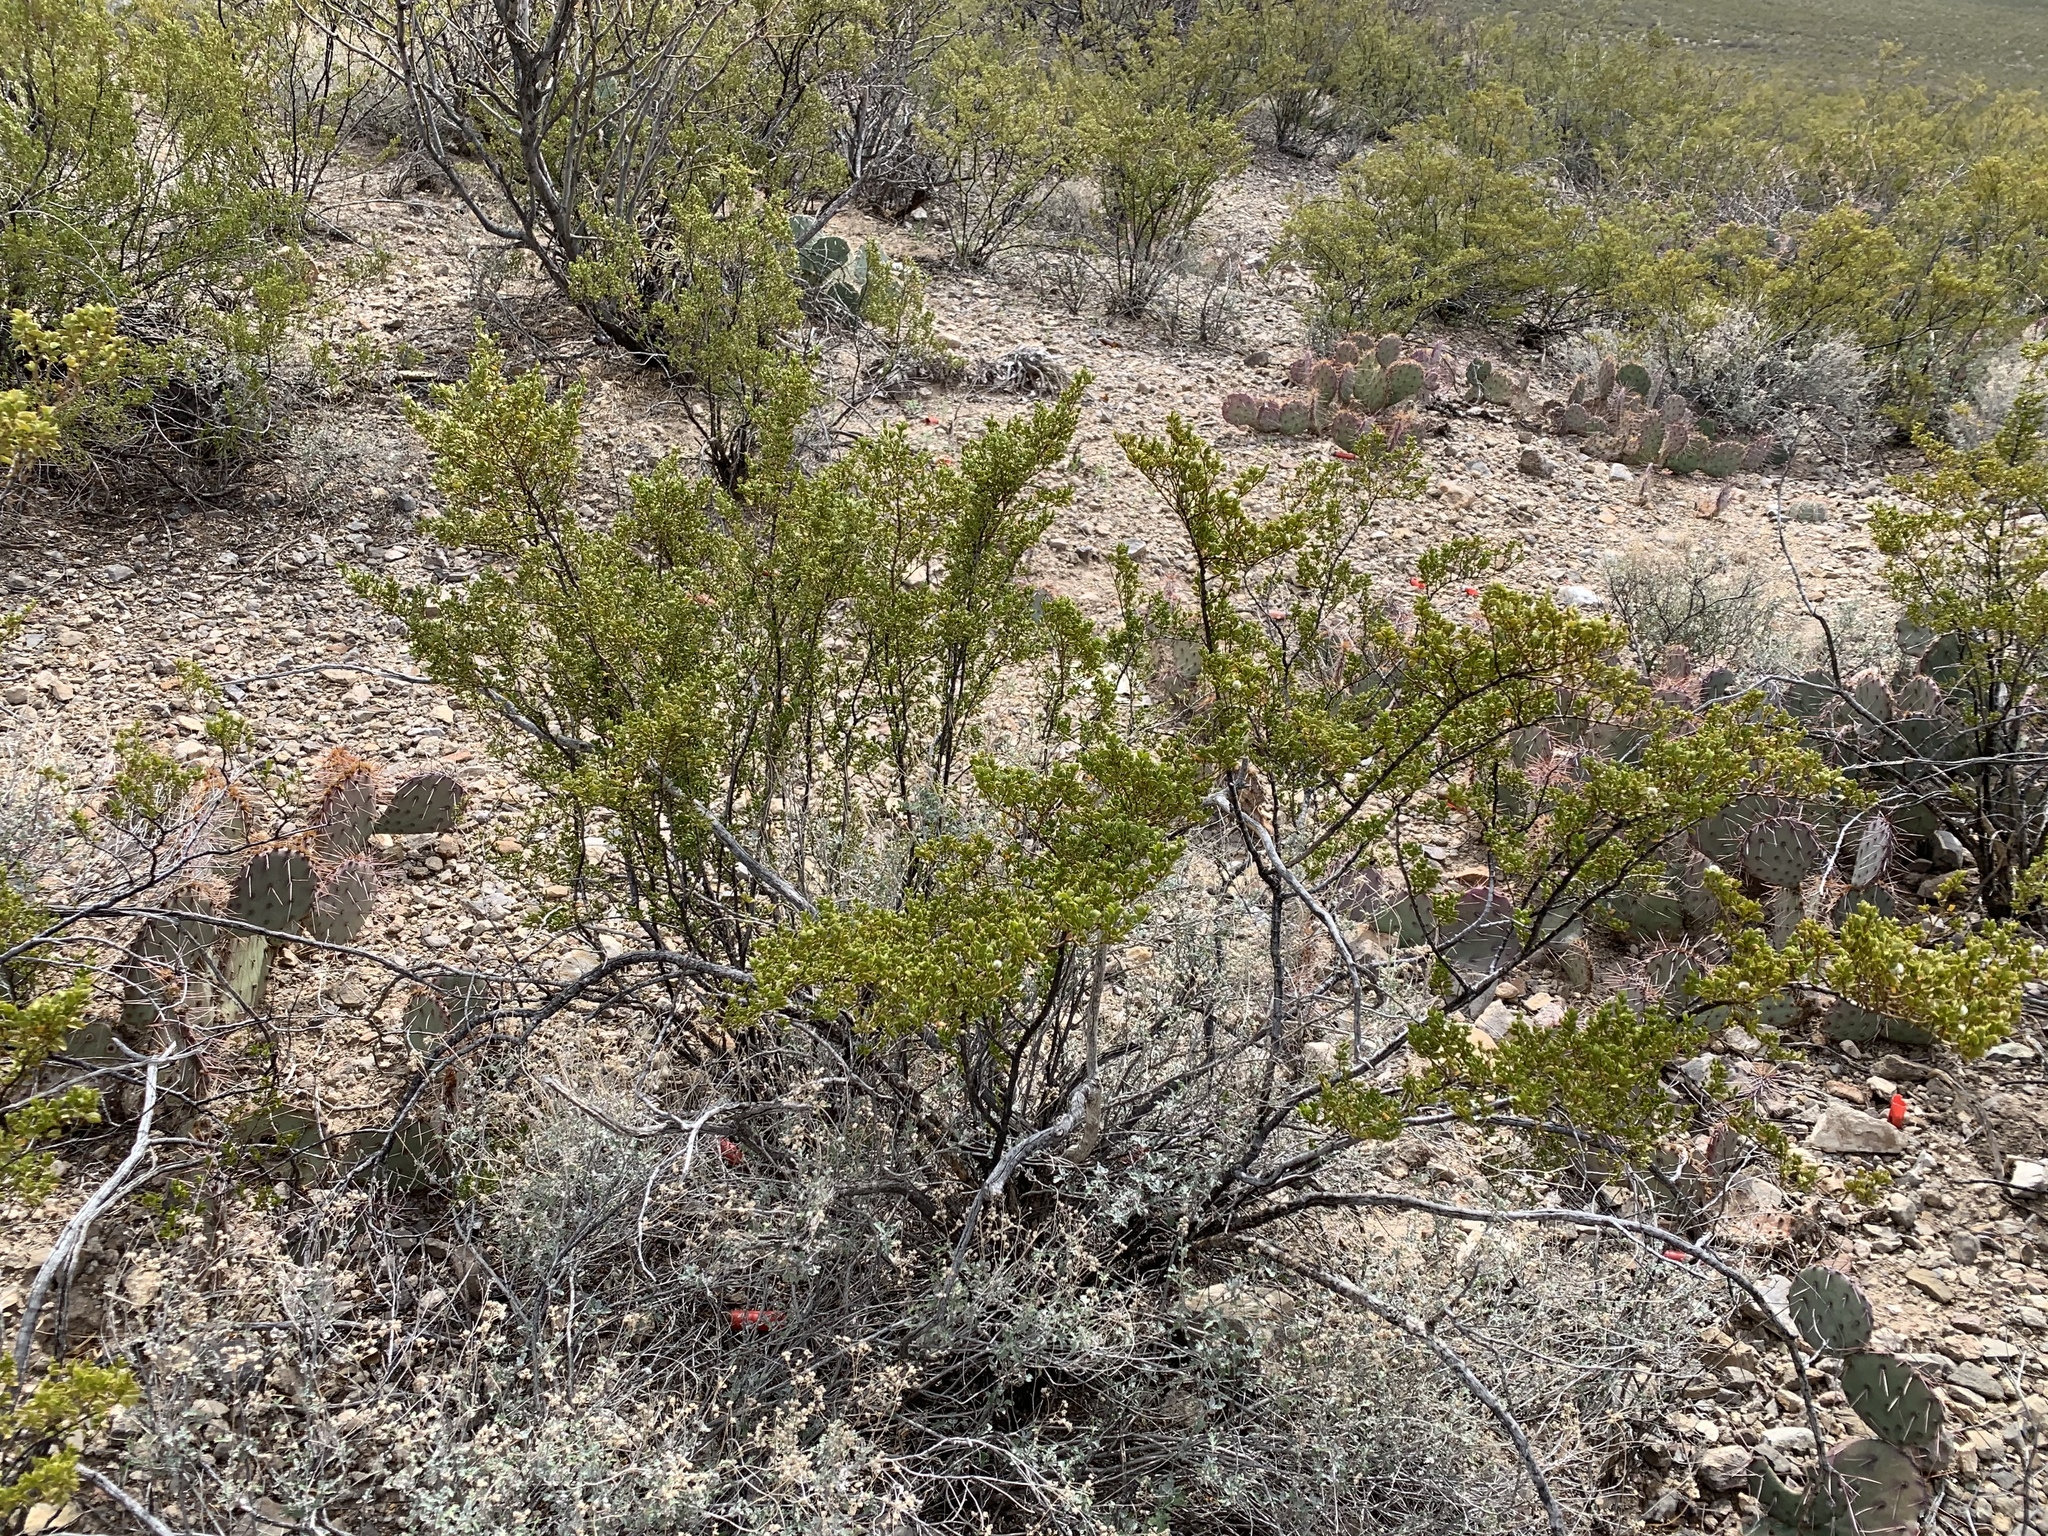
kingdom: Plantae
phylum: Tracheophyta
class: Magnoliopsida
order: Zygophyllales
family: Zygophyllaceae
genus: Larrea
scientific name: Larrea tridentata
